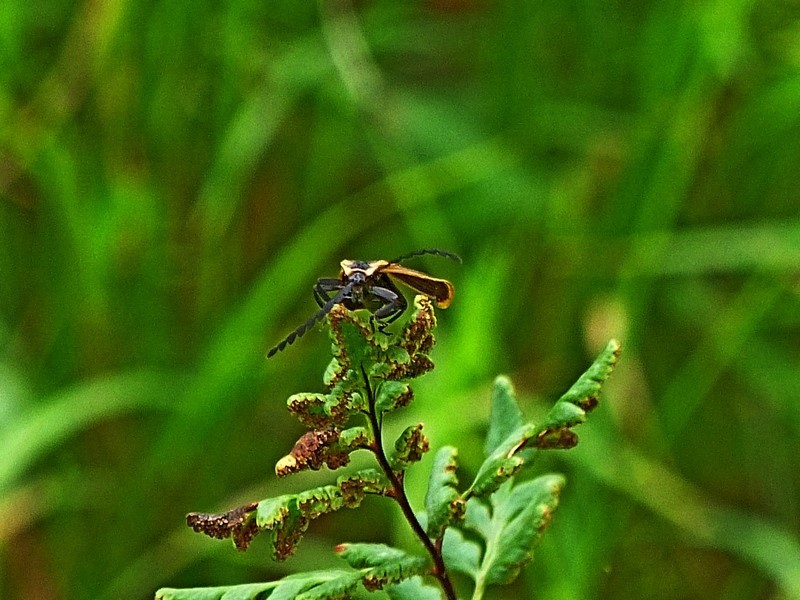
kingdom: Animalia
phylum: Arthropoda
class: Insecta
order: Coleoptera
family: Lycidae
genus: Trichalus
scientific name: Trichalus
